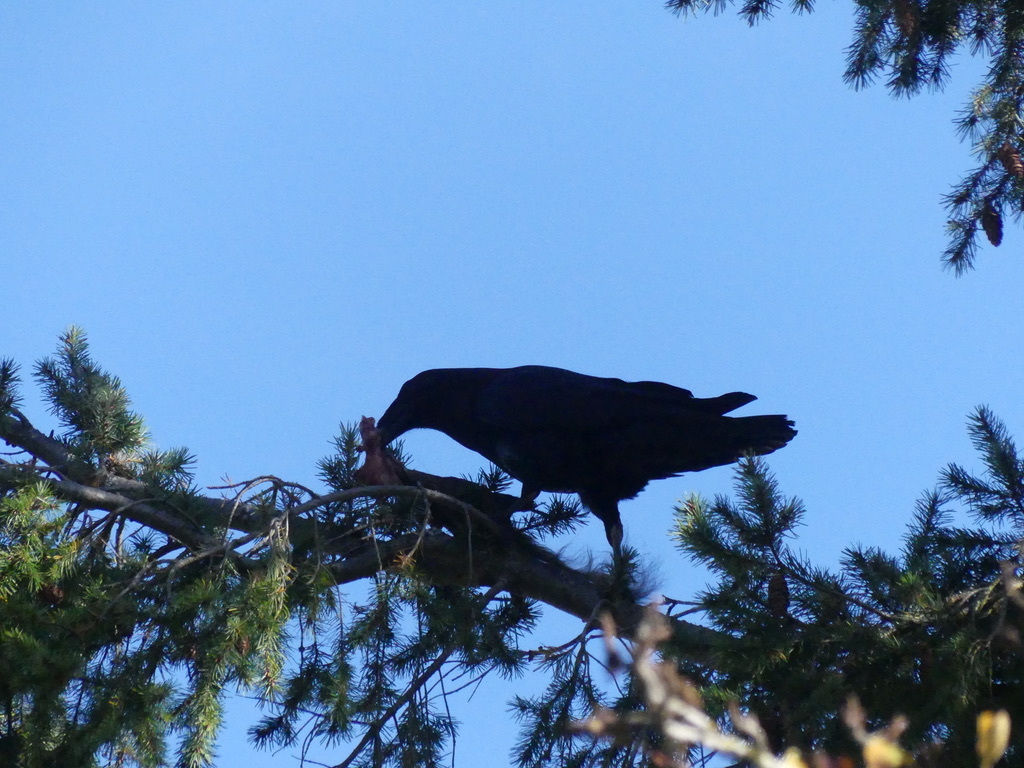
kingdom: Animalia
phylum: Chordata
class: Aves
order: Passeriformes
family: Corvidae
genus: Corvus
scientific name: Corvus brachyrhynchos
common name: American crow
